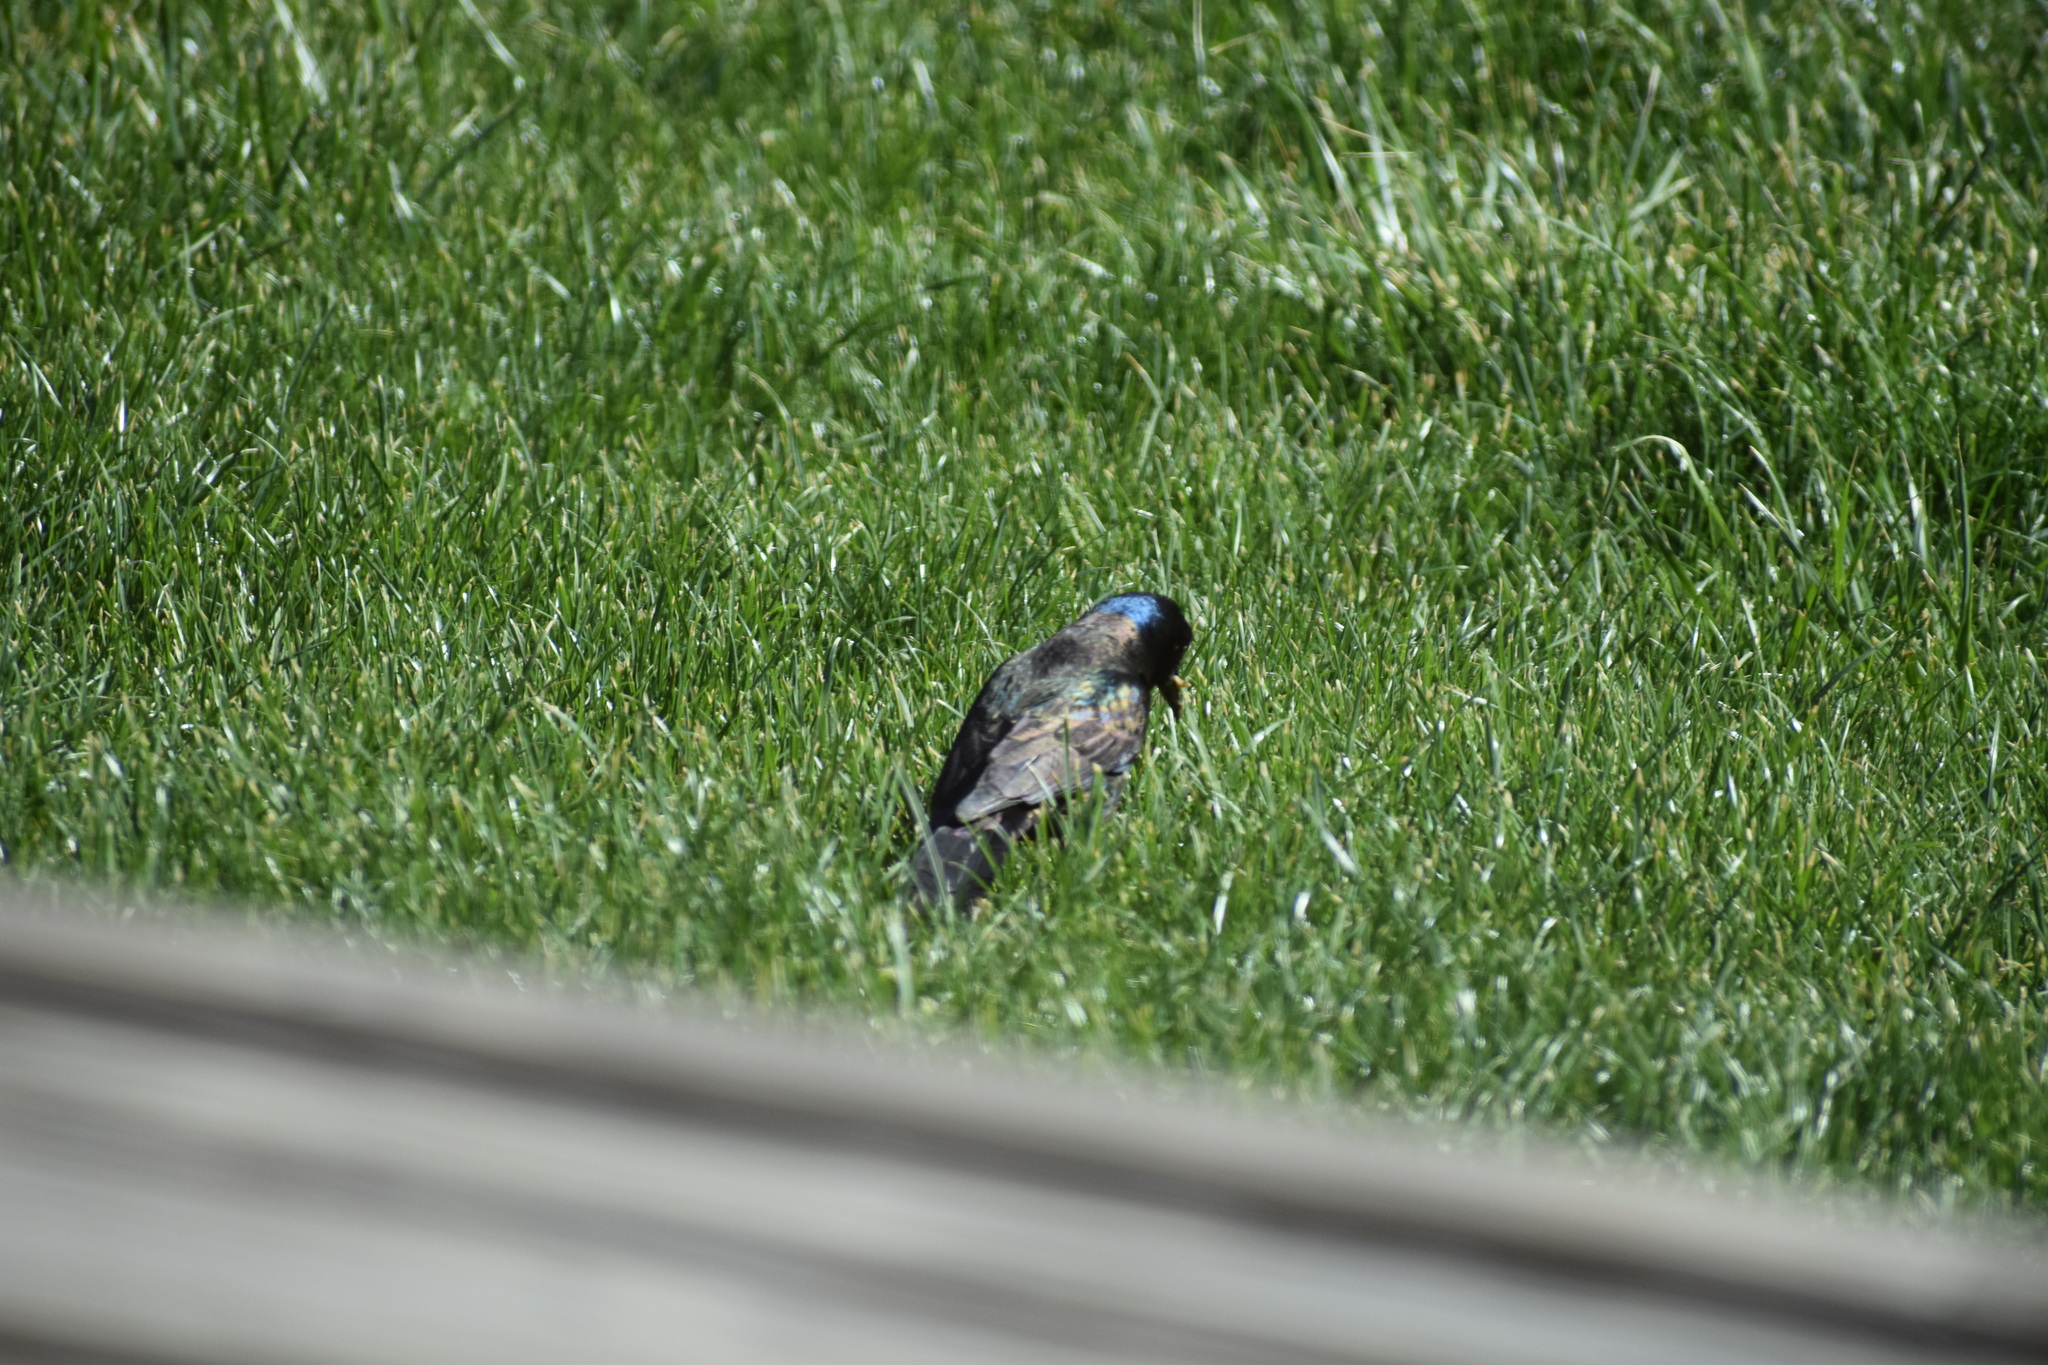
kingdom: Animalia
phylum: Chordata
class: Aves
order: Passeriformes
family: Icteridae
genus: Quiscalus
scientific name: Quiscalus quiscula
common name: Common grackle
